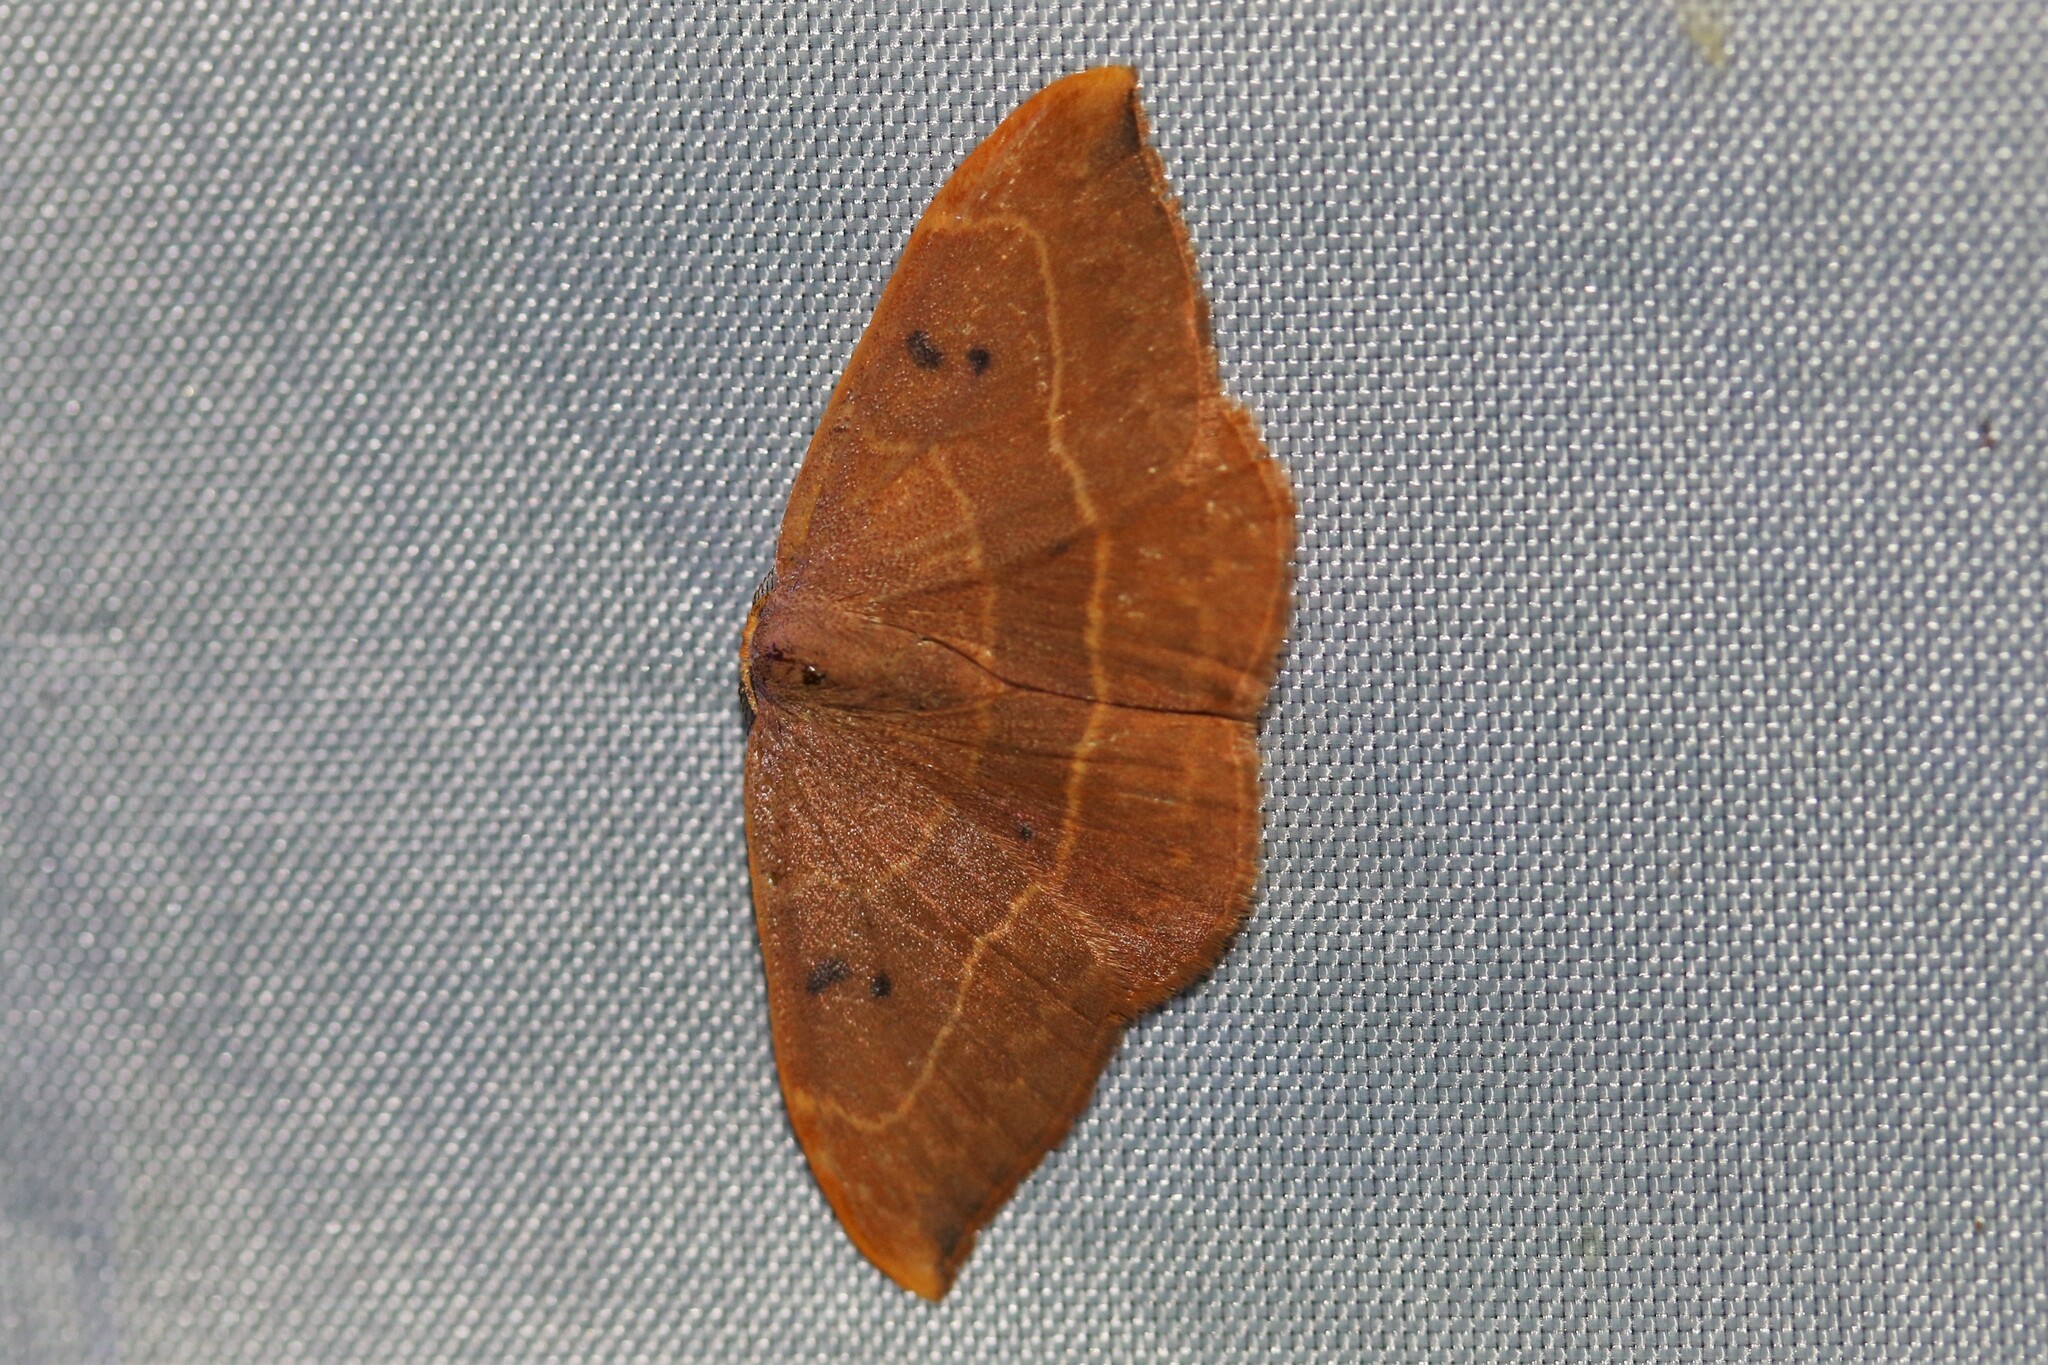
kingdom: Animalia
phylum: Arthropoda
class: Insecta
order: Lepidoptera
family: Drepanidae
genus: Watsonalla
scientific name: Watsonalla binaria
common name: Oak hook-tip
